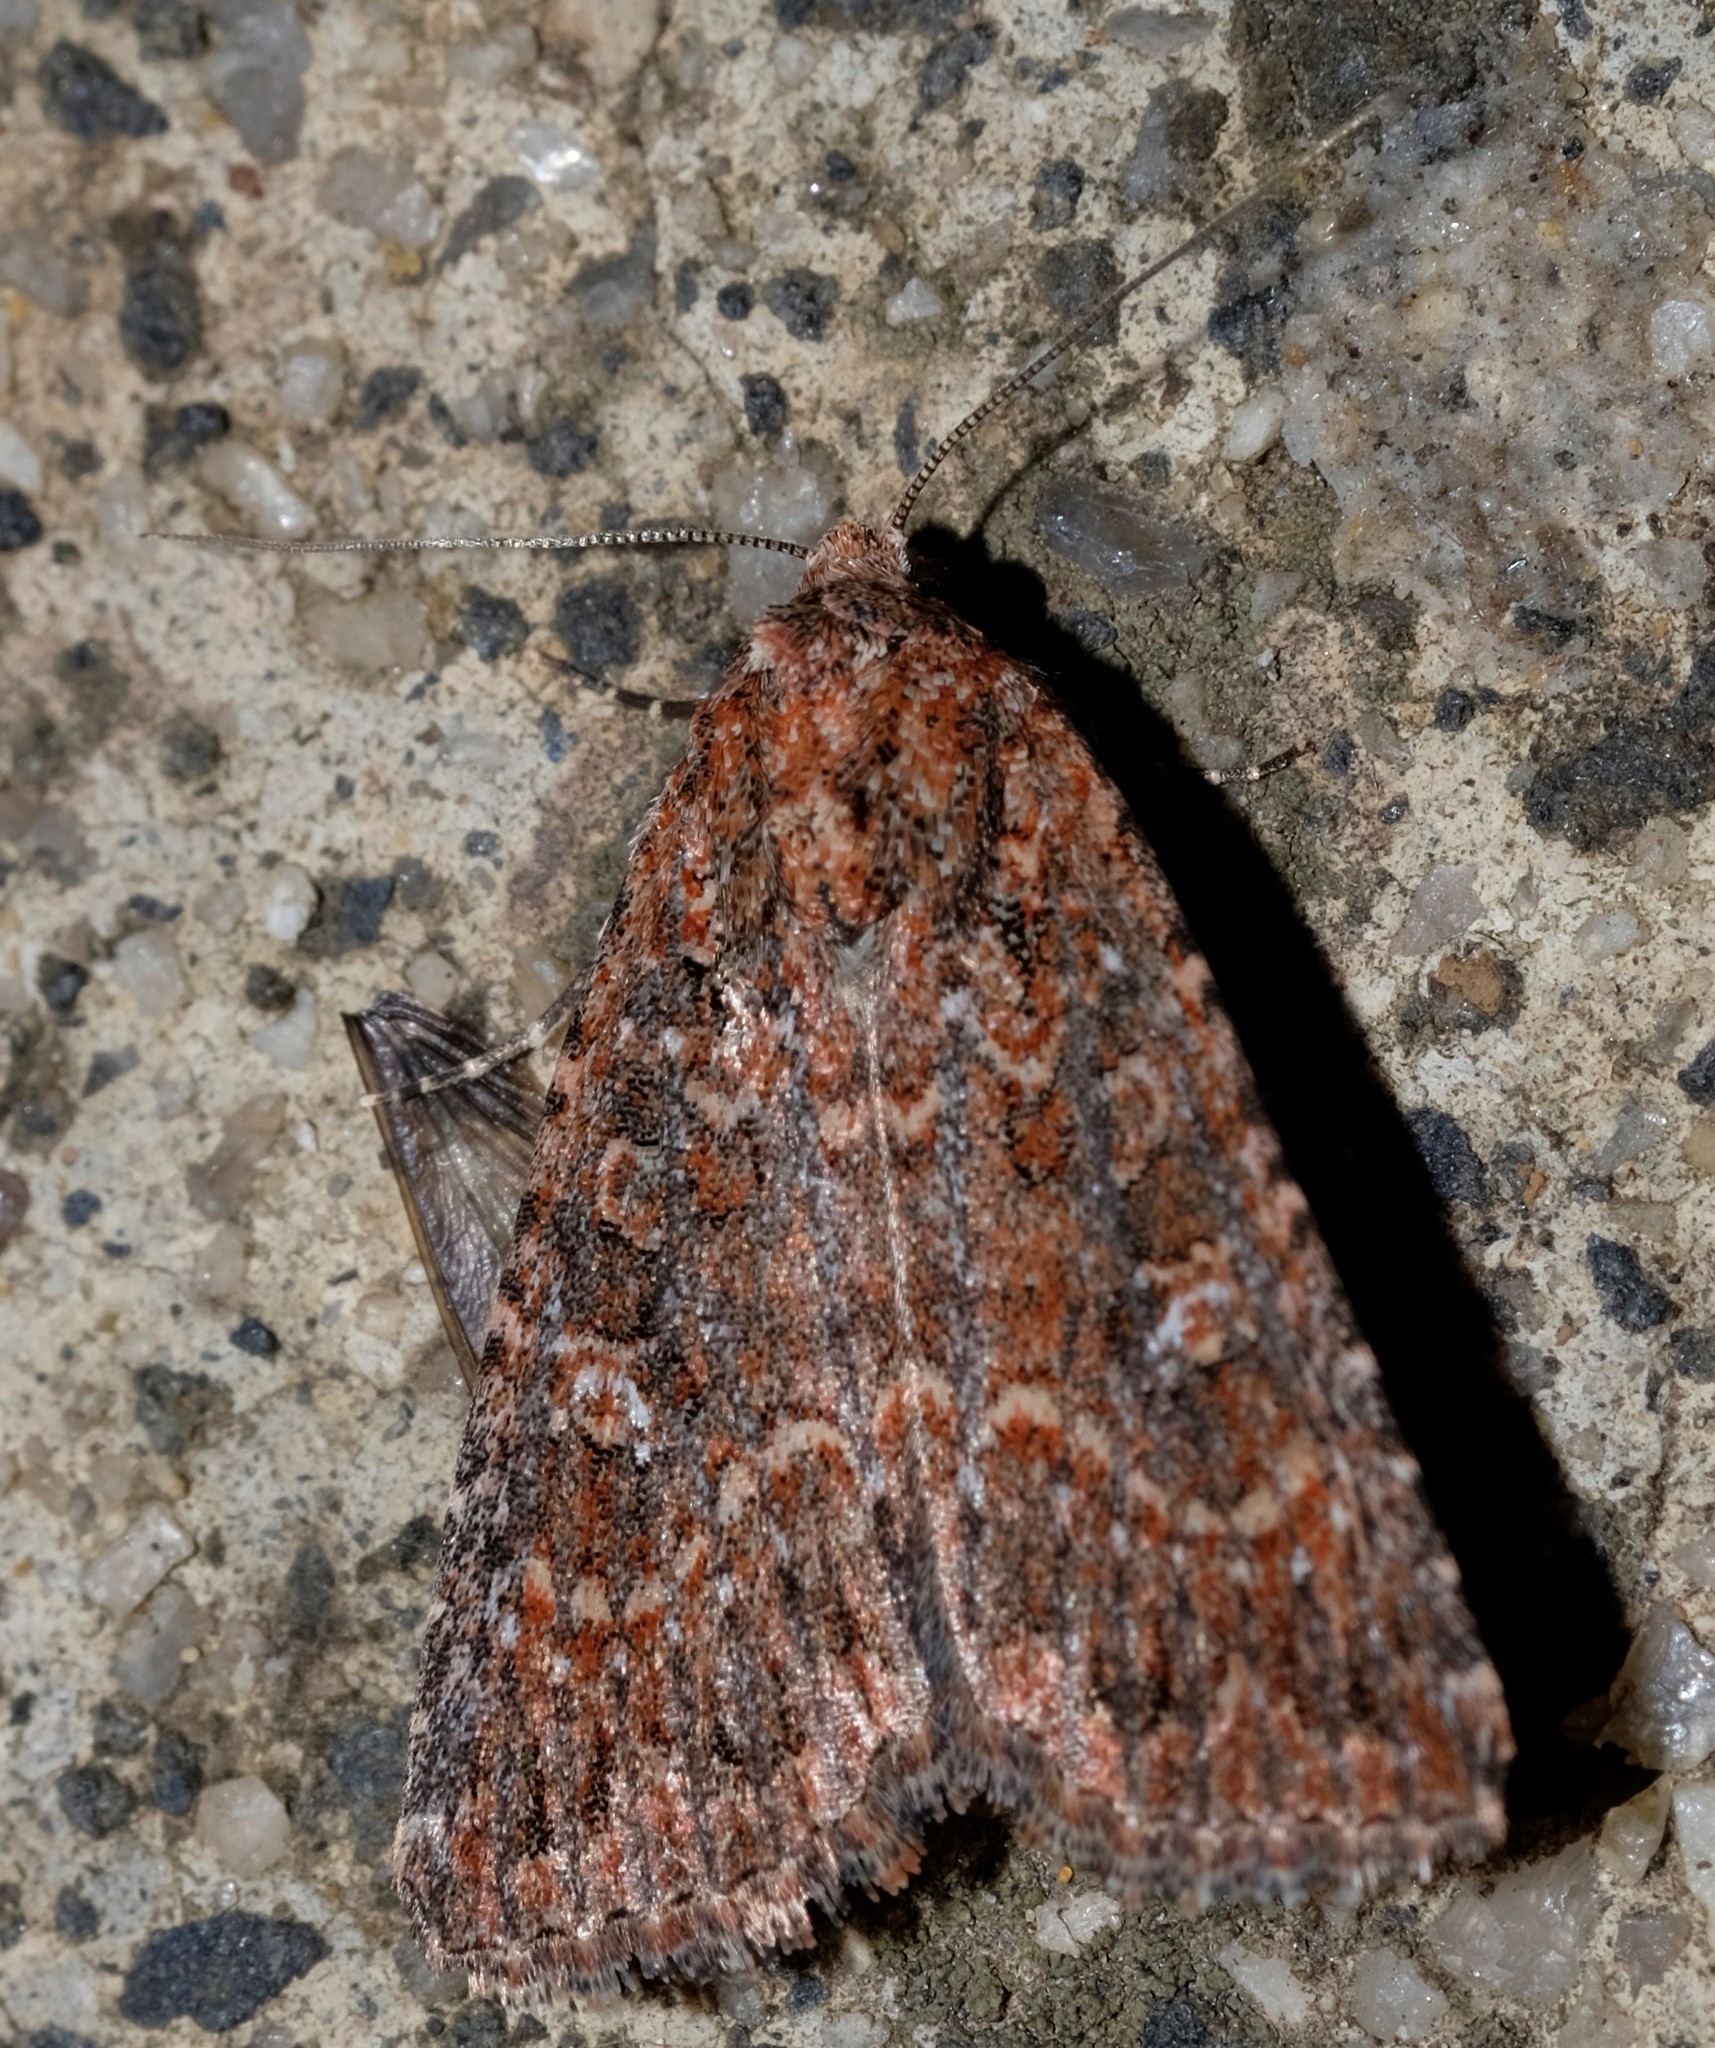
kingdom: Animalia
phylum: Arthropoda
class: Insecta
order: Lepidoptera
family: Noctuidae
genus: Hypoperigea
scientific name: Hypoperigea tonsa
